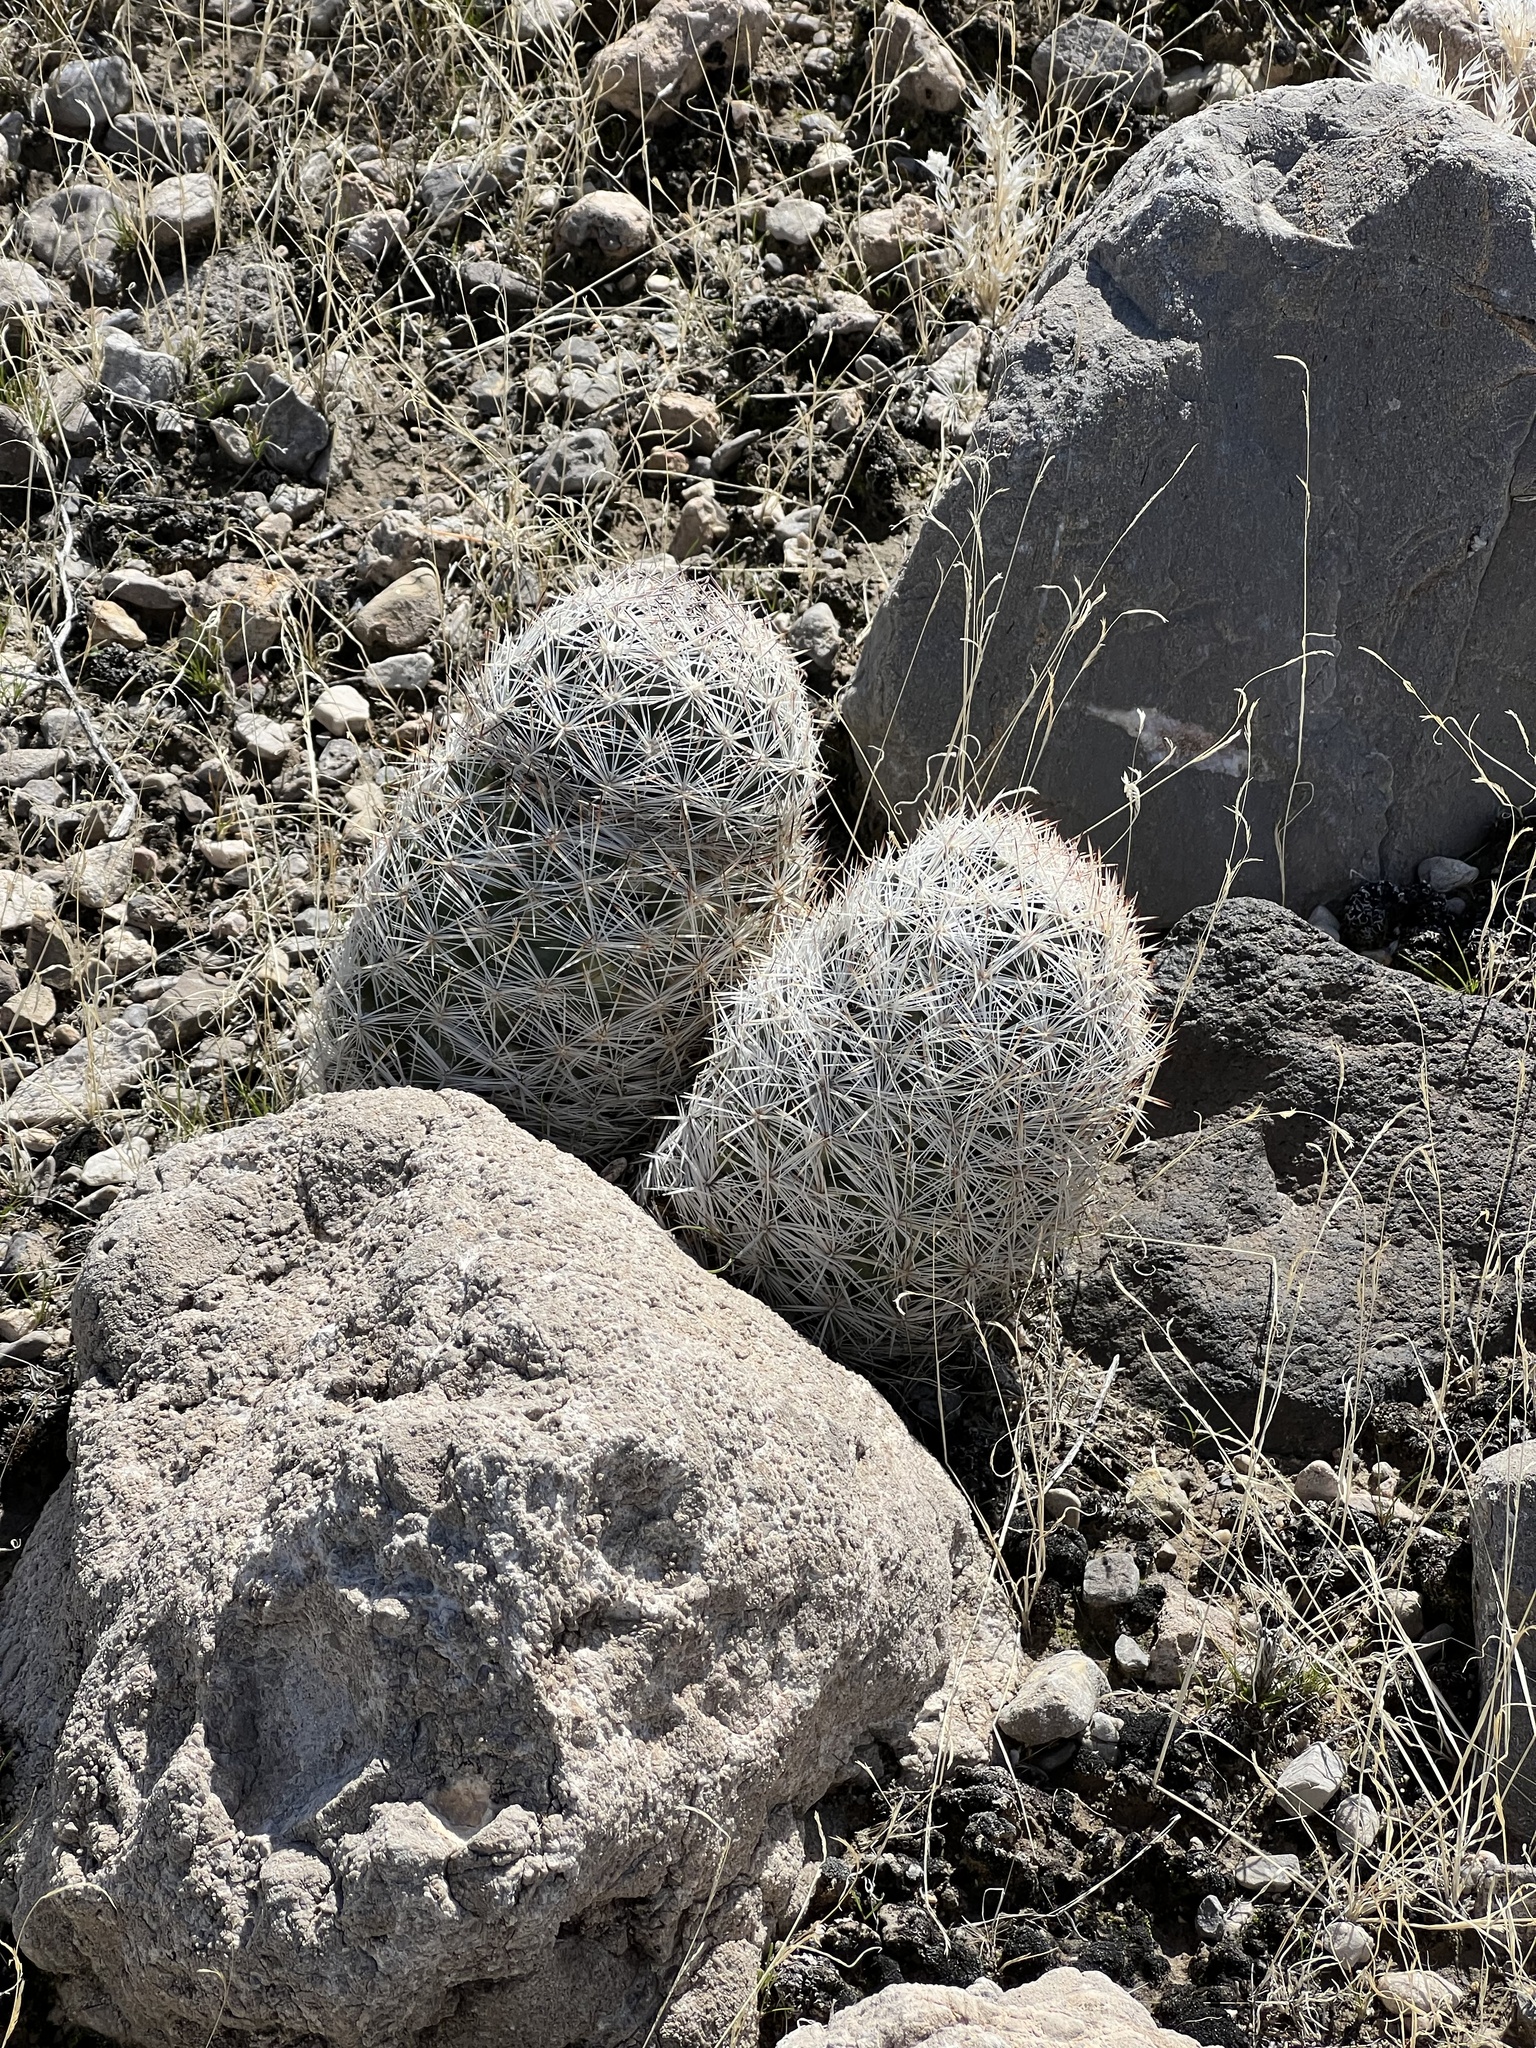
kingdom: Plantae
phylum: Tracheophyta
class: Magnoliopsida
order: Caryophyllales
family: Cactaceae
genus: Pelecyphora
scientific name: Pelecyphora dasyacantha
